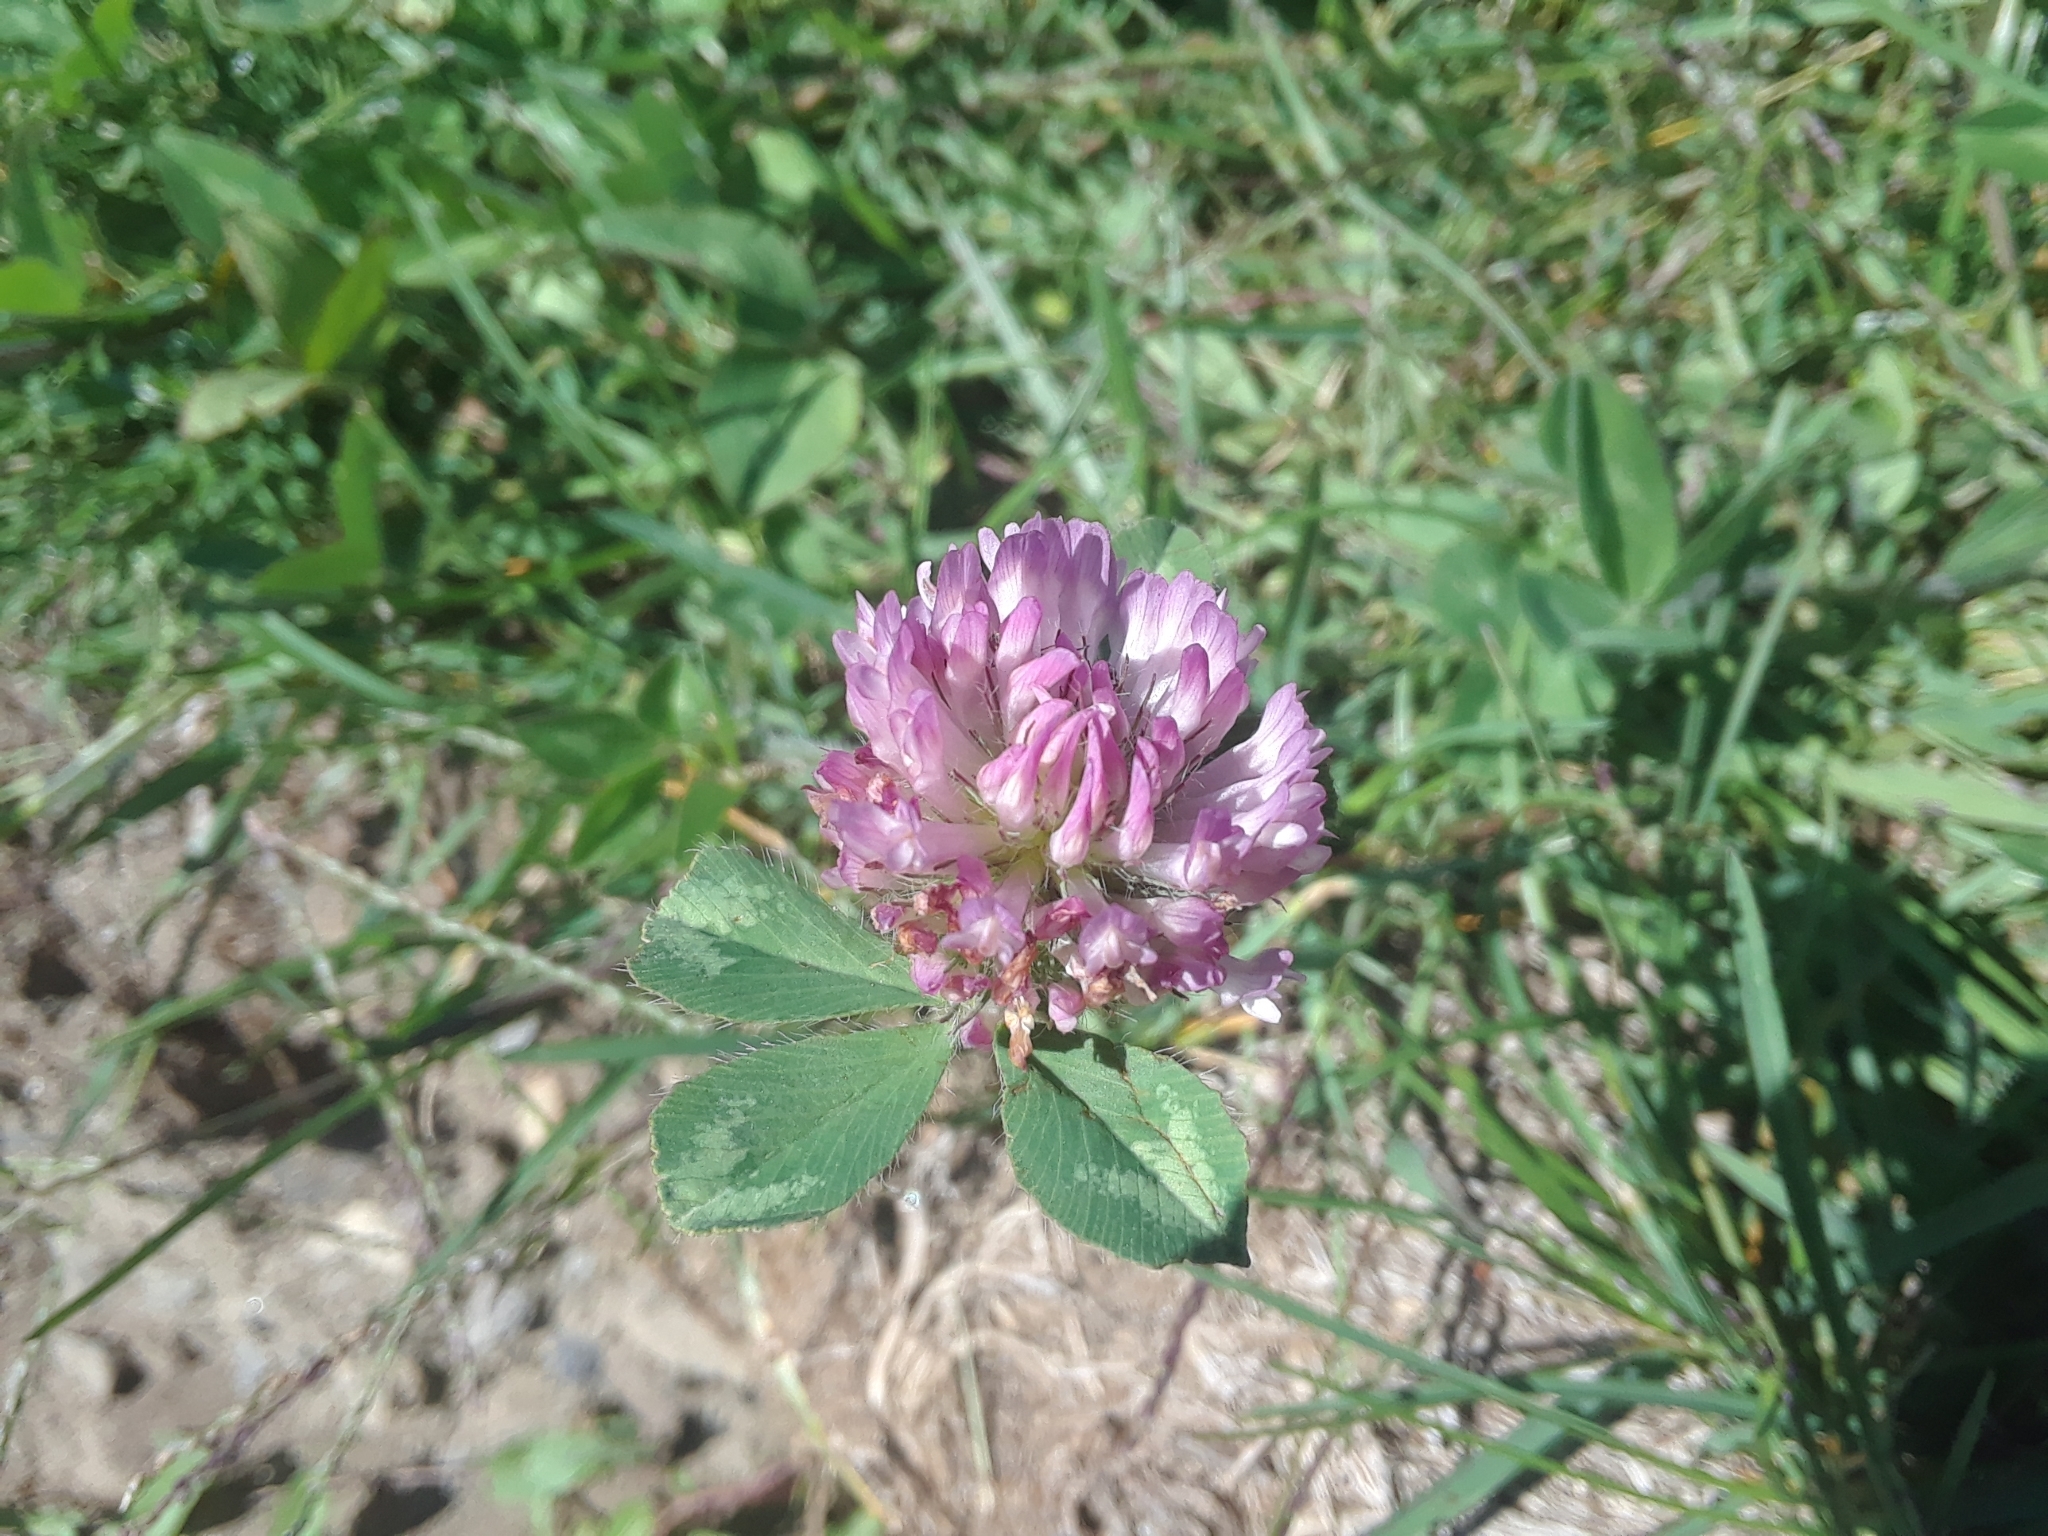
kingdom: Plantae
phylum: Tracheophyta
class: Magnoliopsida
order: Fabales
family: Fabaceae
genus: Trifolium
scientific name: Trifolium pratense
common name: Red clover
